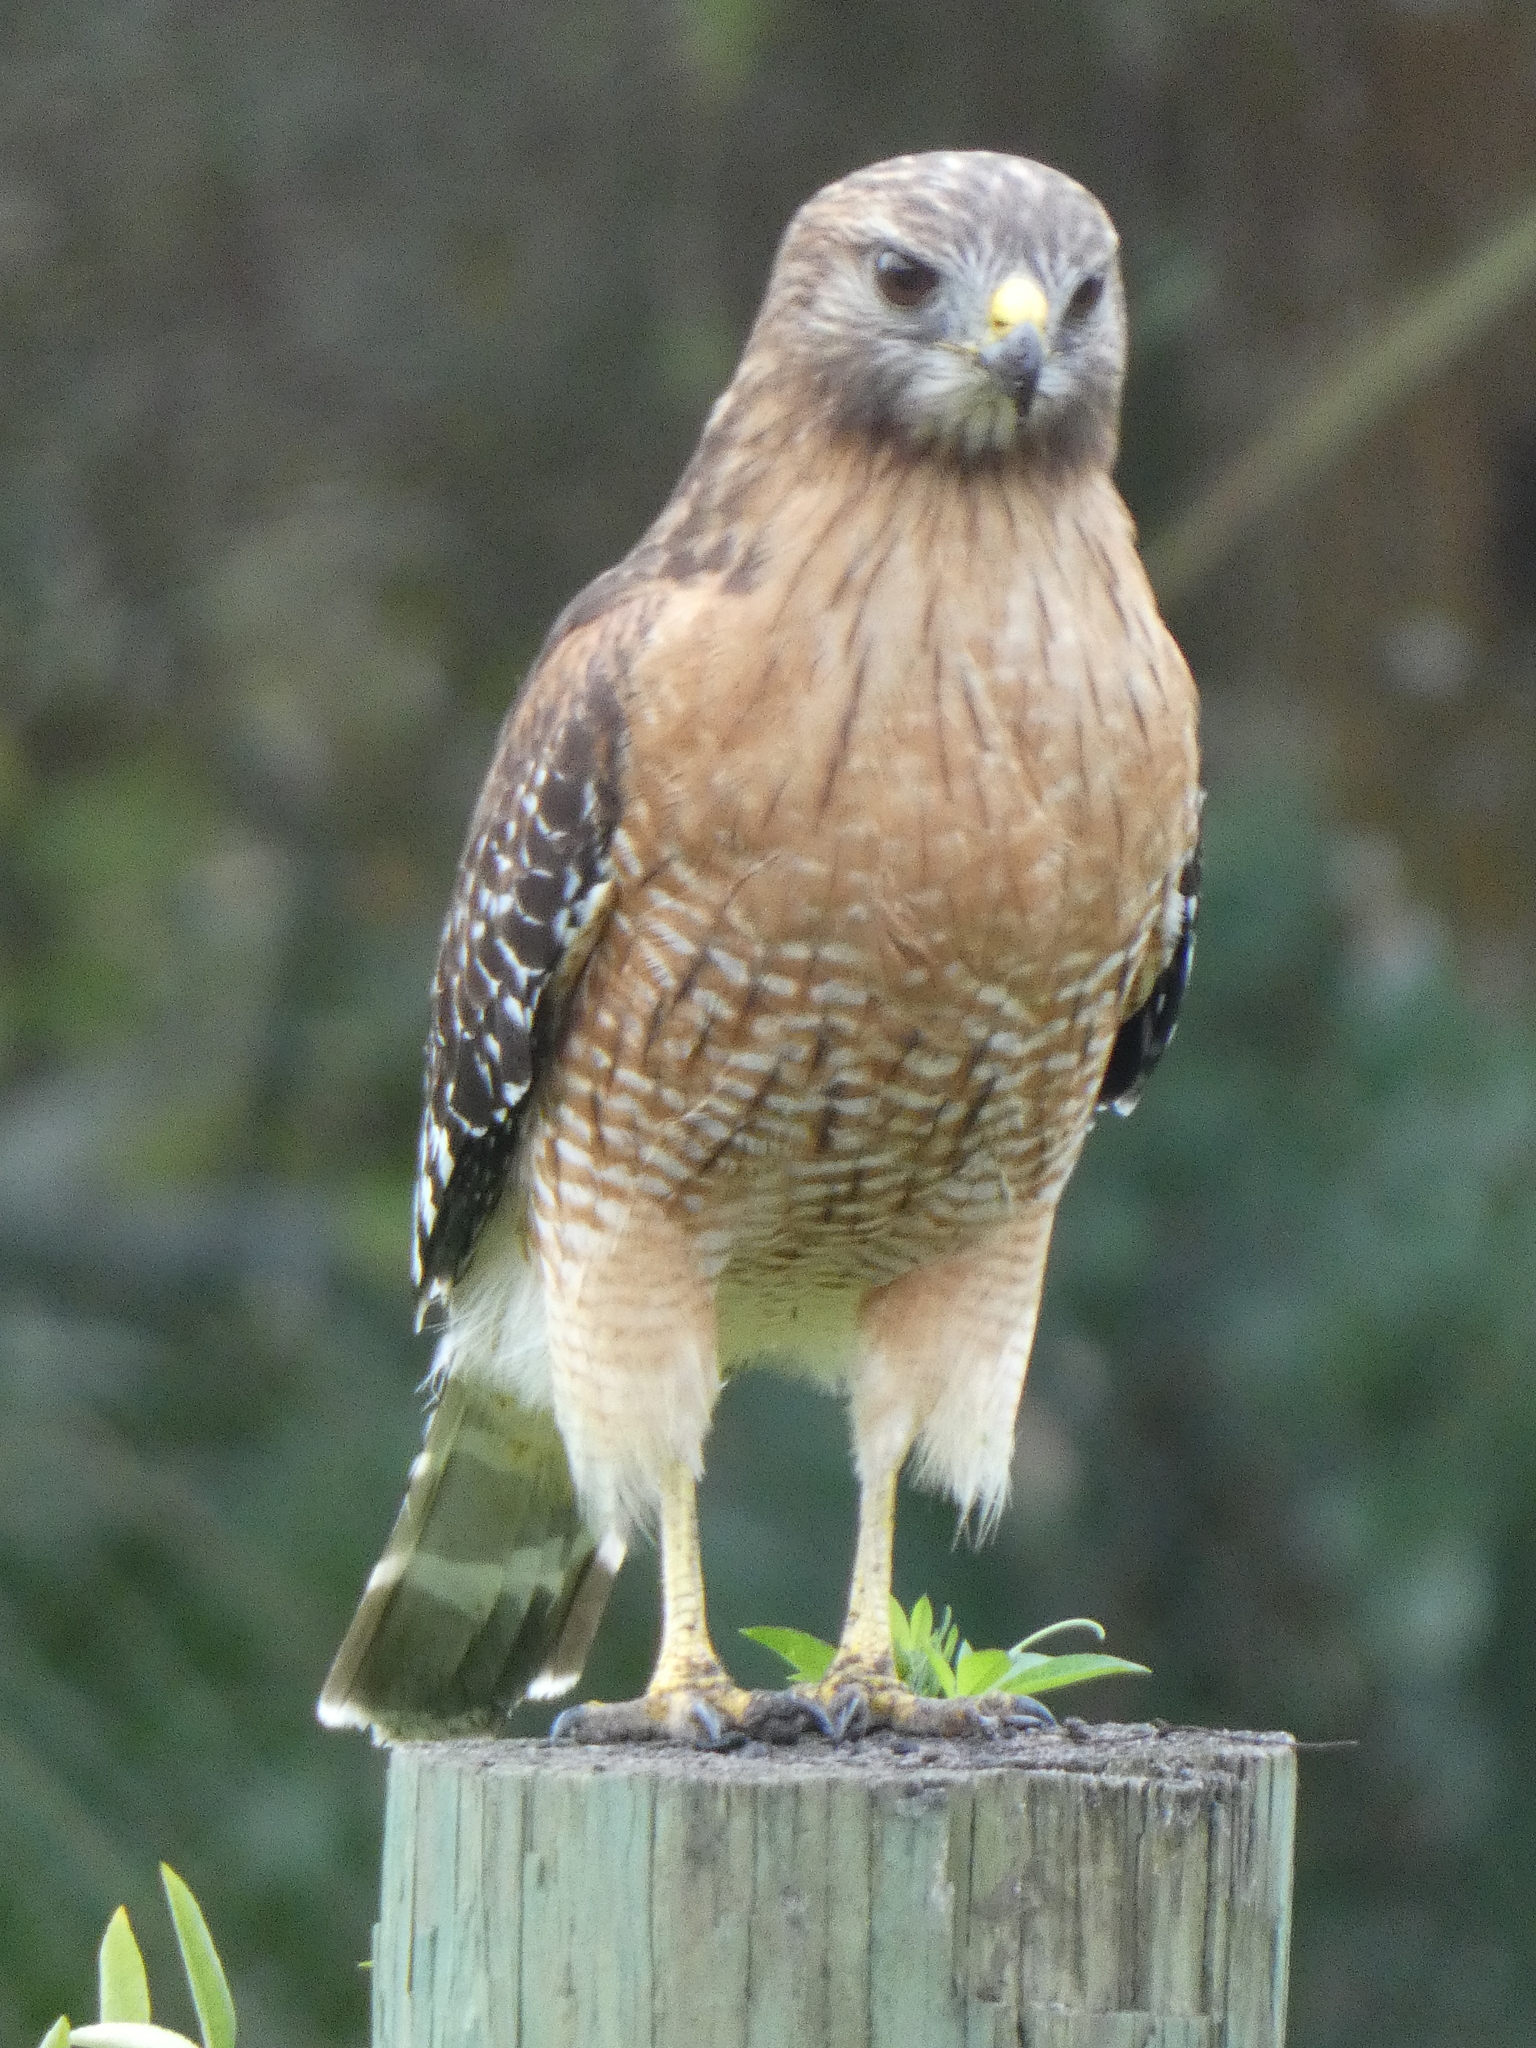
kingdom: Animalia
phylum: Chordata
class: Aves
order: Accipitriformes
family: Accipitridae
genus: Buteo
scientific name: Buteo lineatus
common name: Red-shouldered hawk
